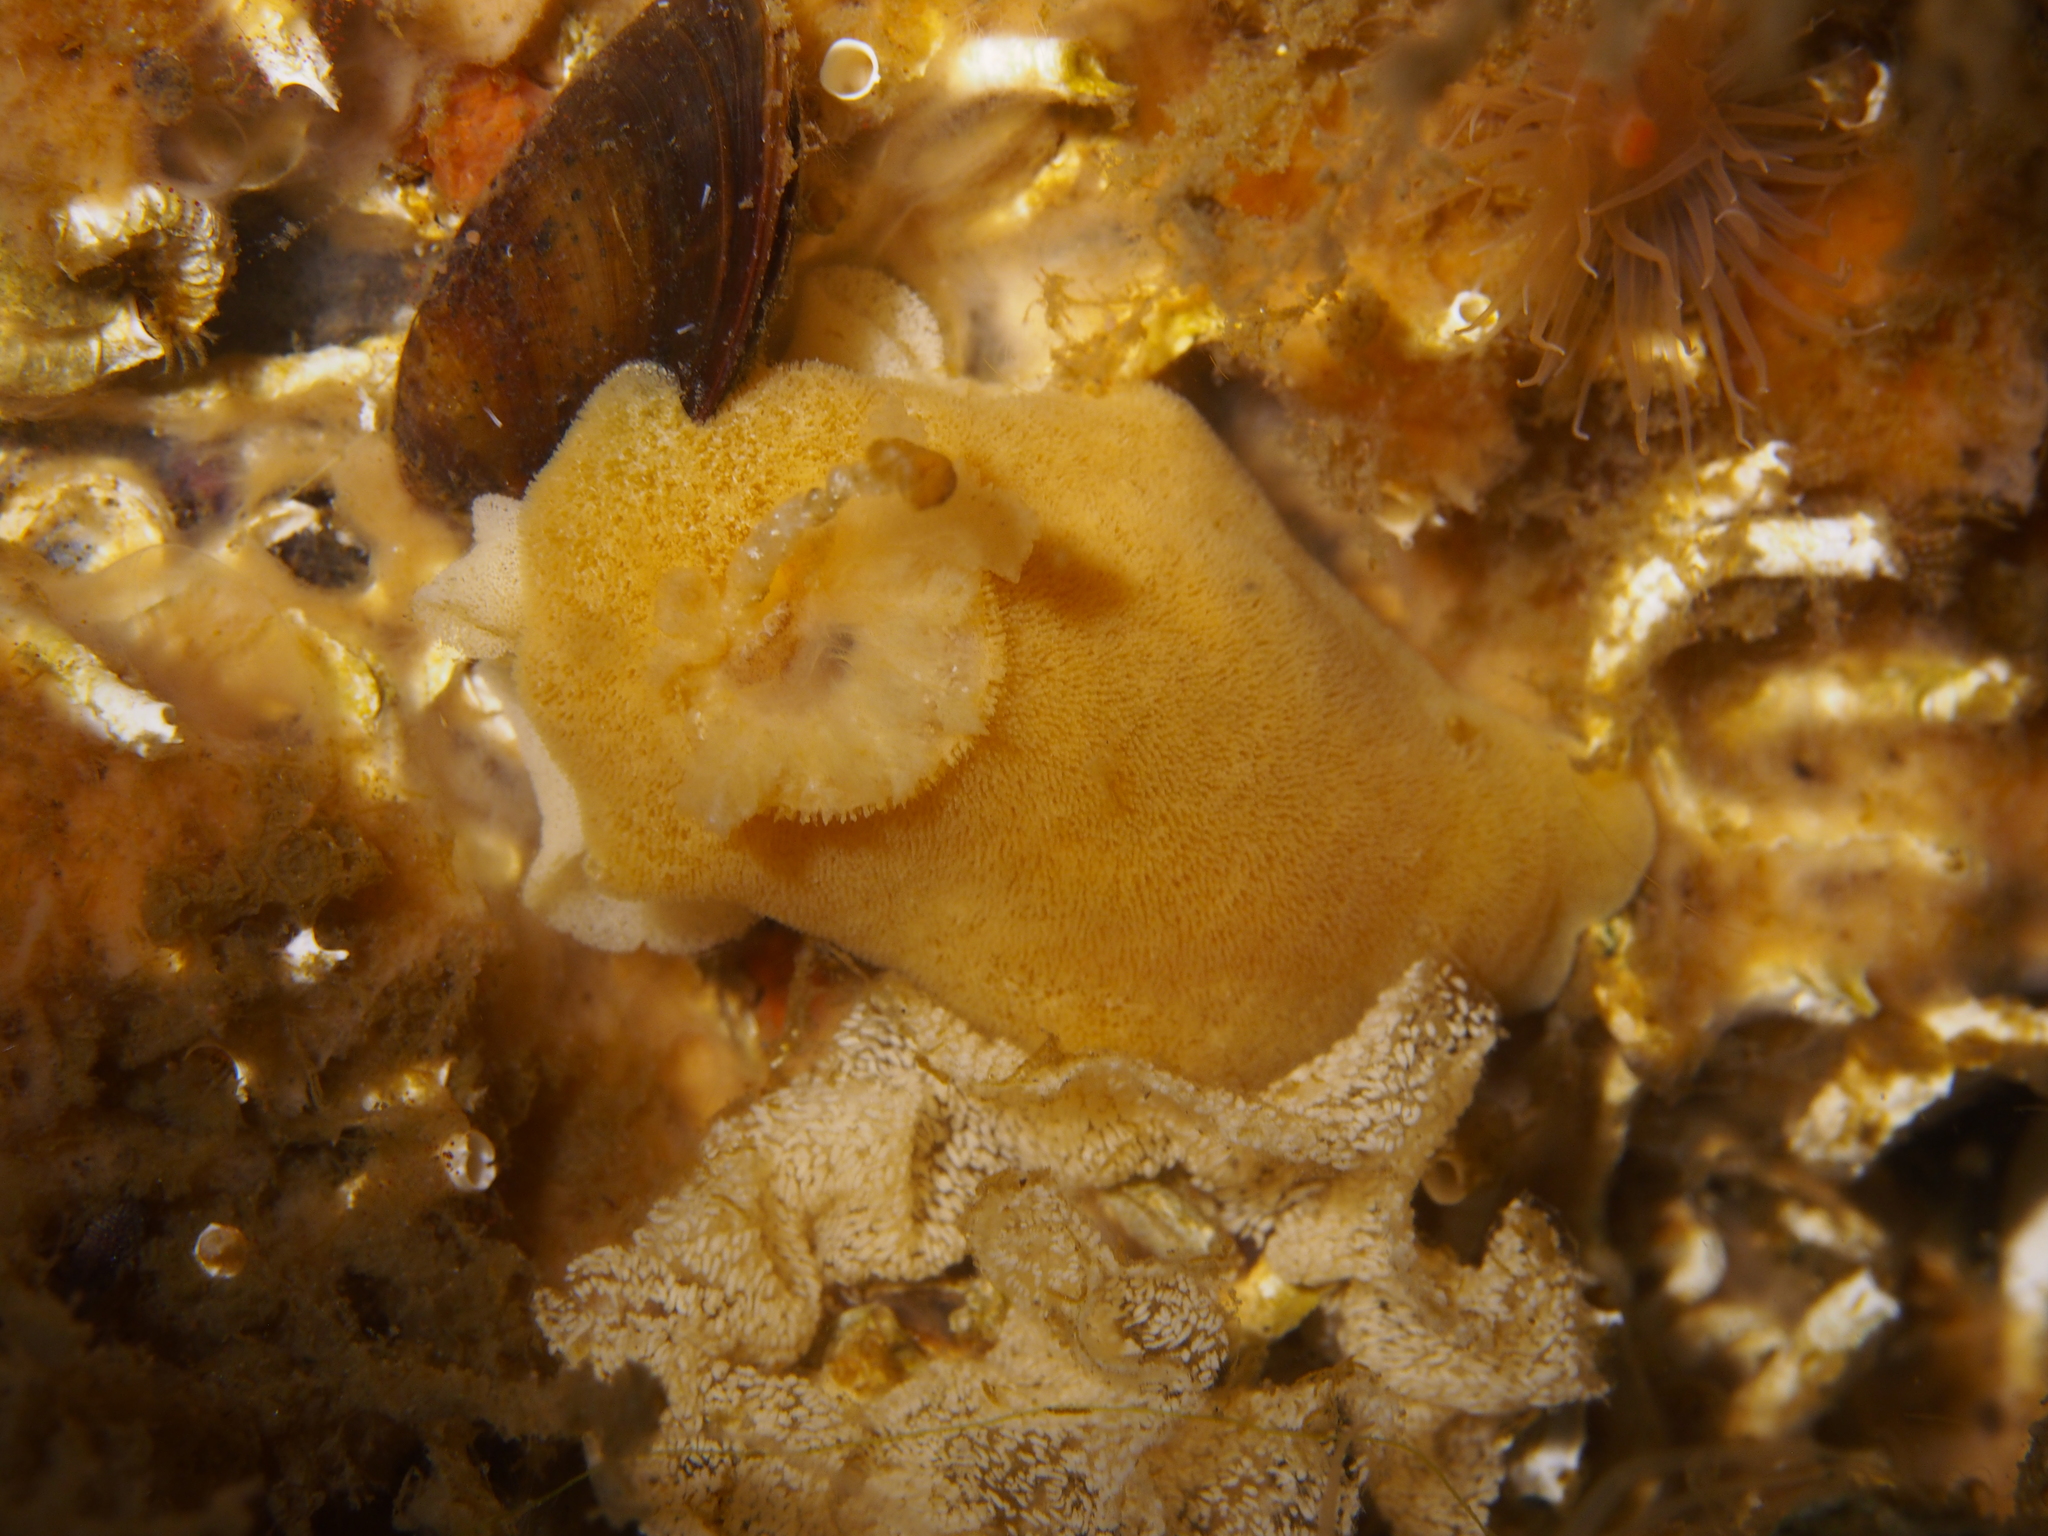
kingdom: Animalia
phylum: Mollusca
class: Gastropoda
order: Nudibranchia
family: Discodorididae
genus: Jorunna
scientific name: Jorunna tomentosa
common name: Grey sea slug
